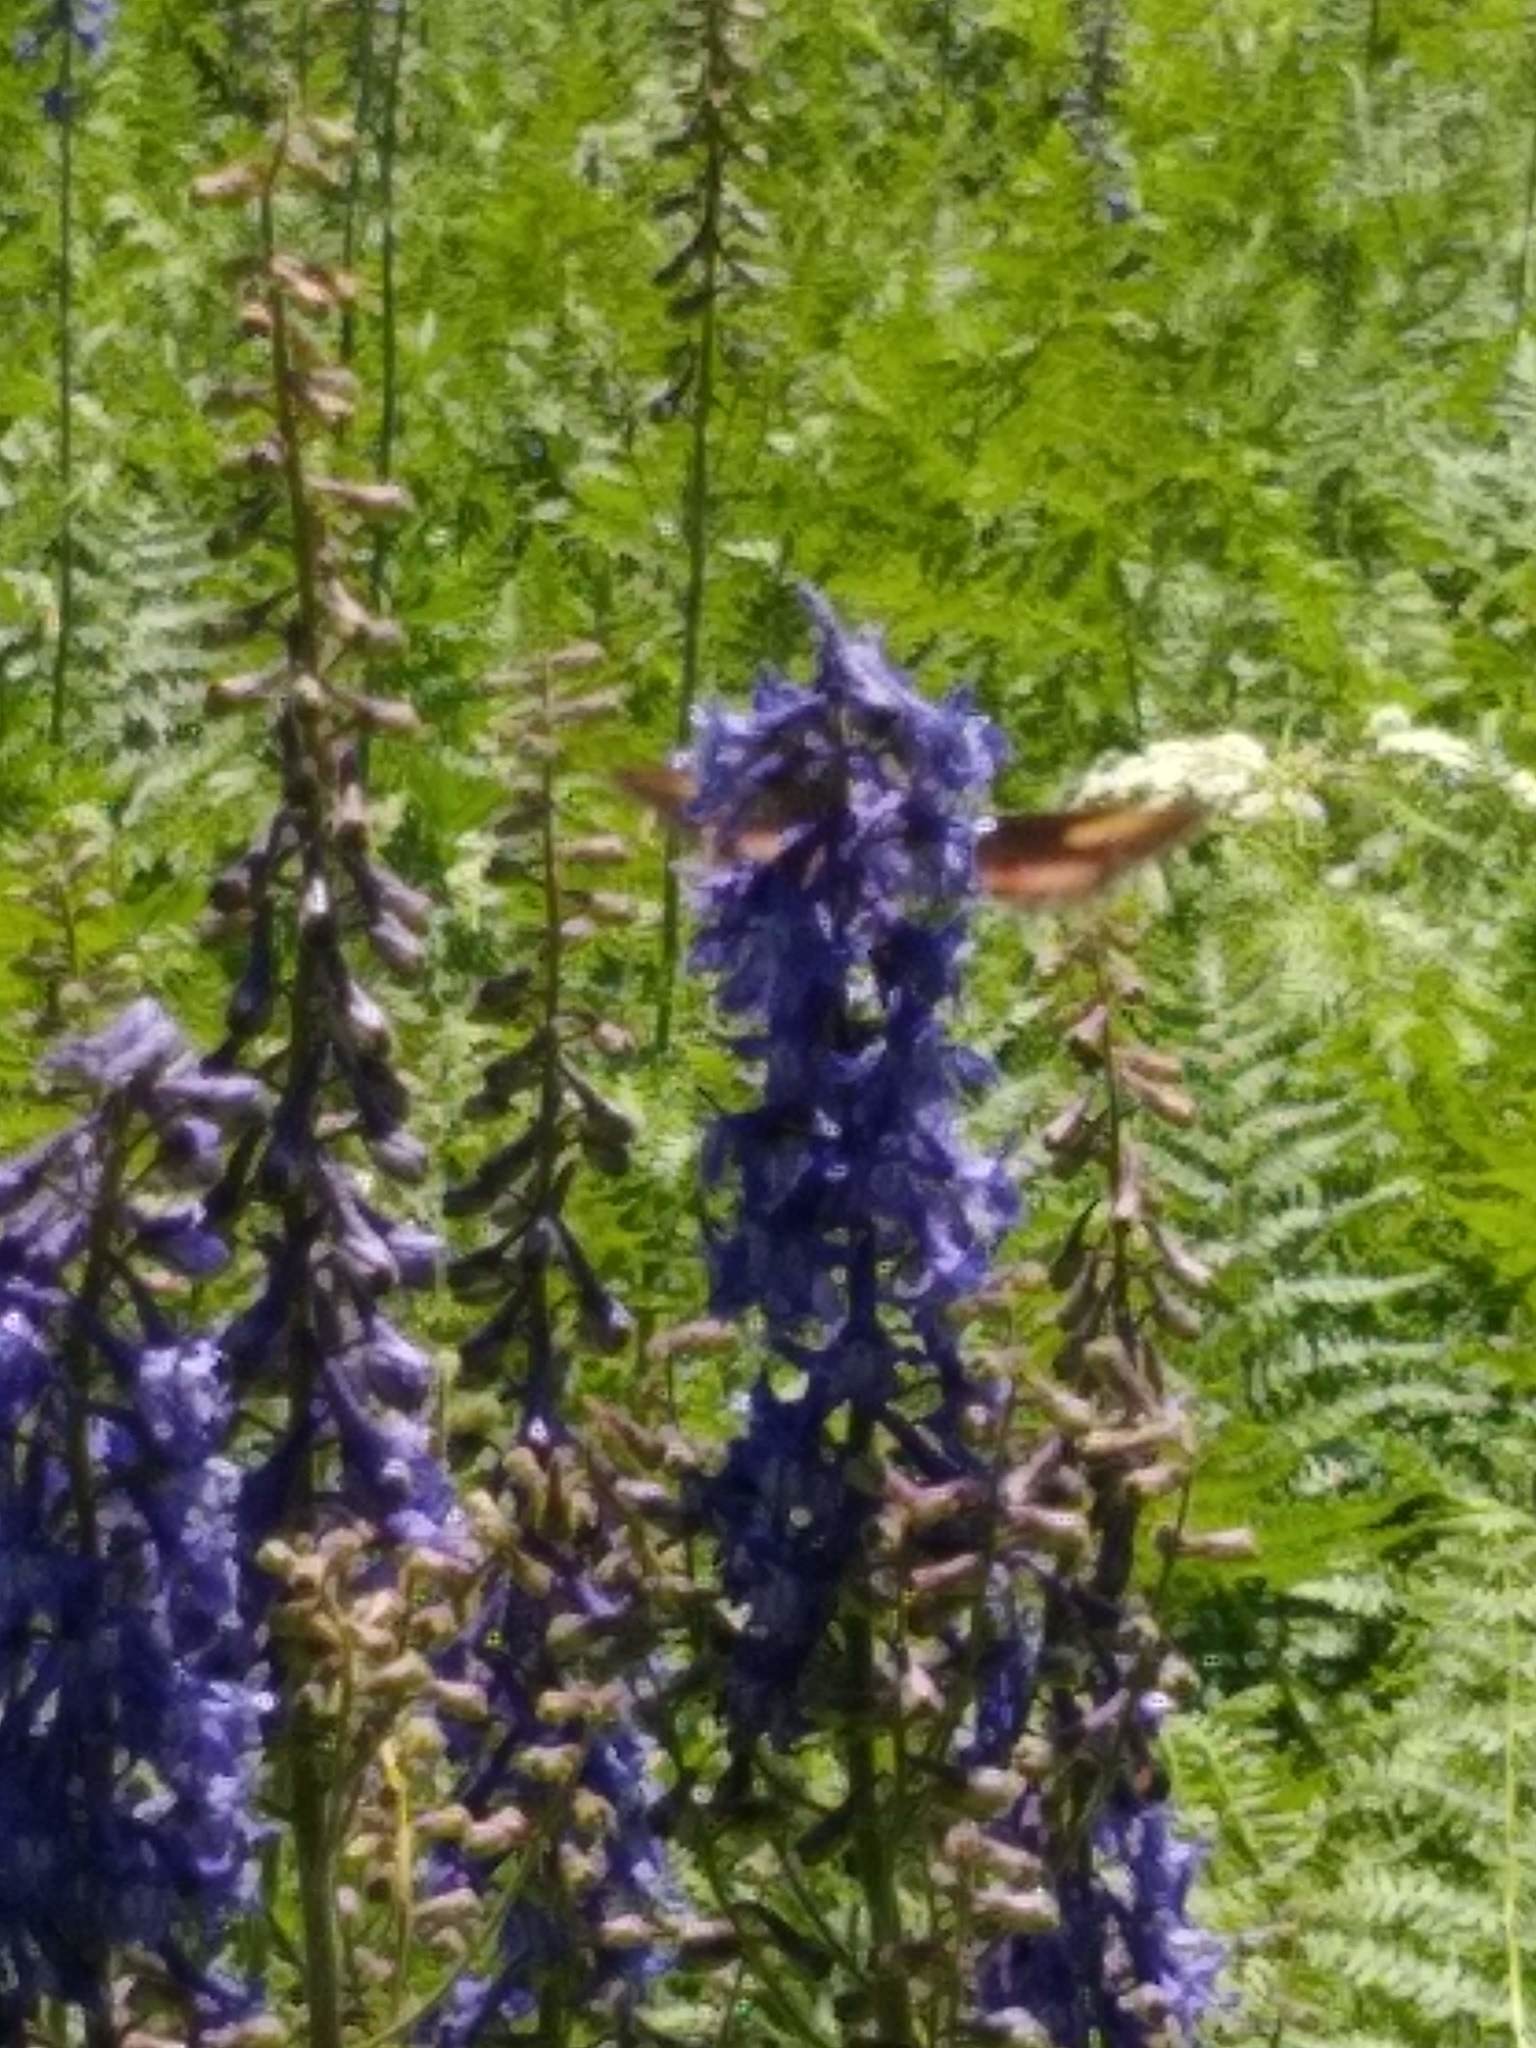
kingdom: Animalia
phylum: Arthropoda
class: Insecta
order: Lepidoptera
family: Sphingidae
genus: Hyles
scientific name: Hyles lineata
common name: White-lined sphinx
